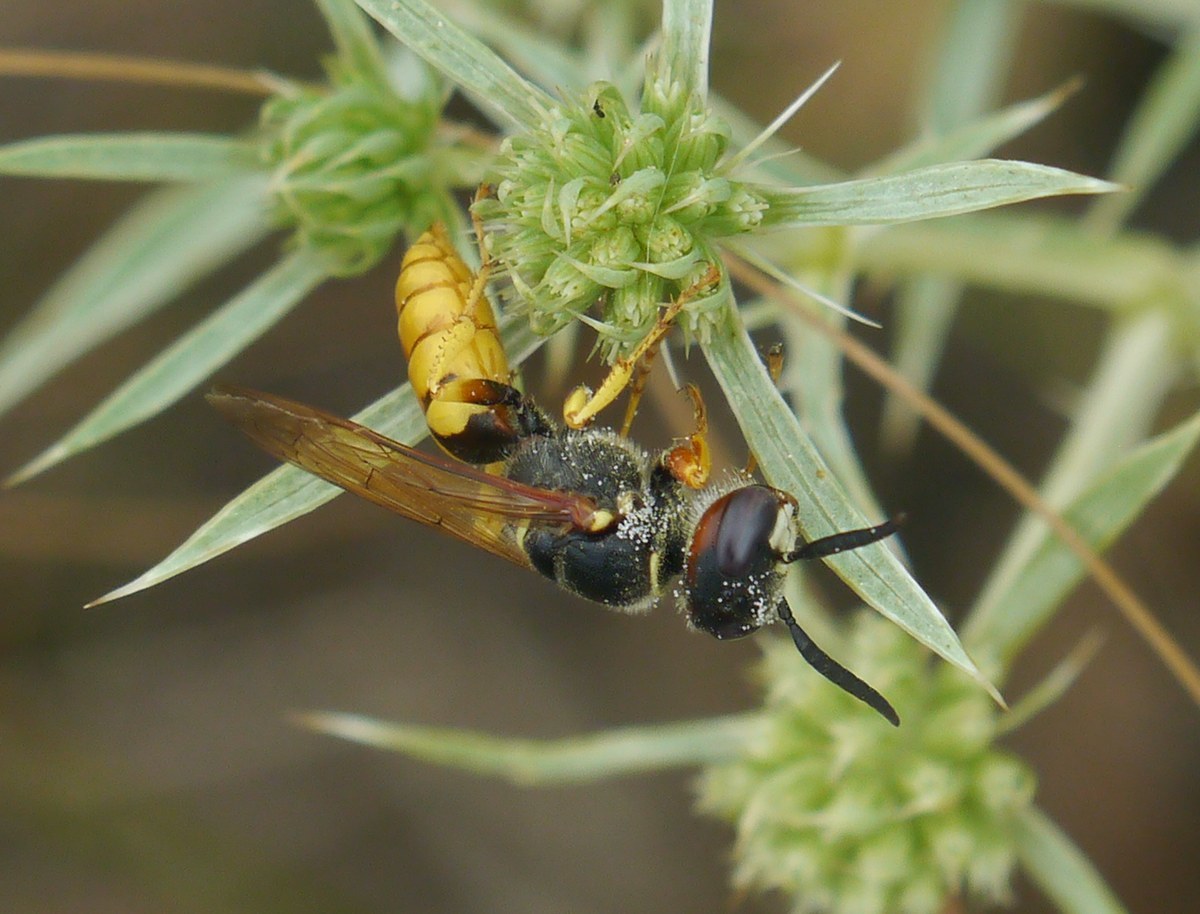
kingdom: Animalia
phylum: Arthropoda
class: Insecta
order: Hymenoptera
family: Crabronidae
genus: Philanthus
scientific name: Philanthus triangulum
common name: Bee wolf
